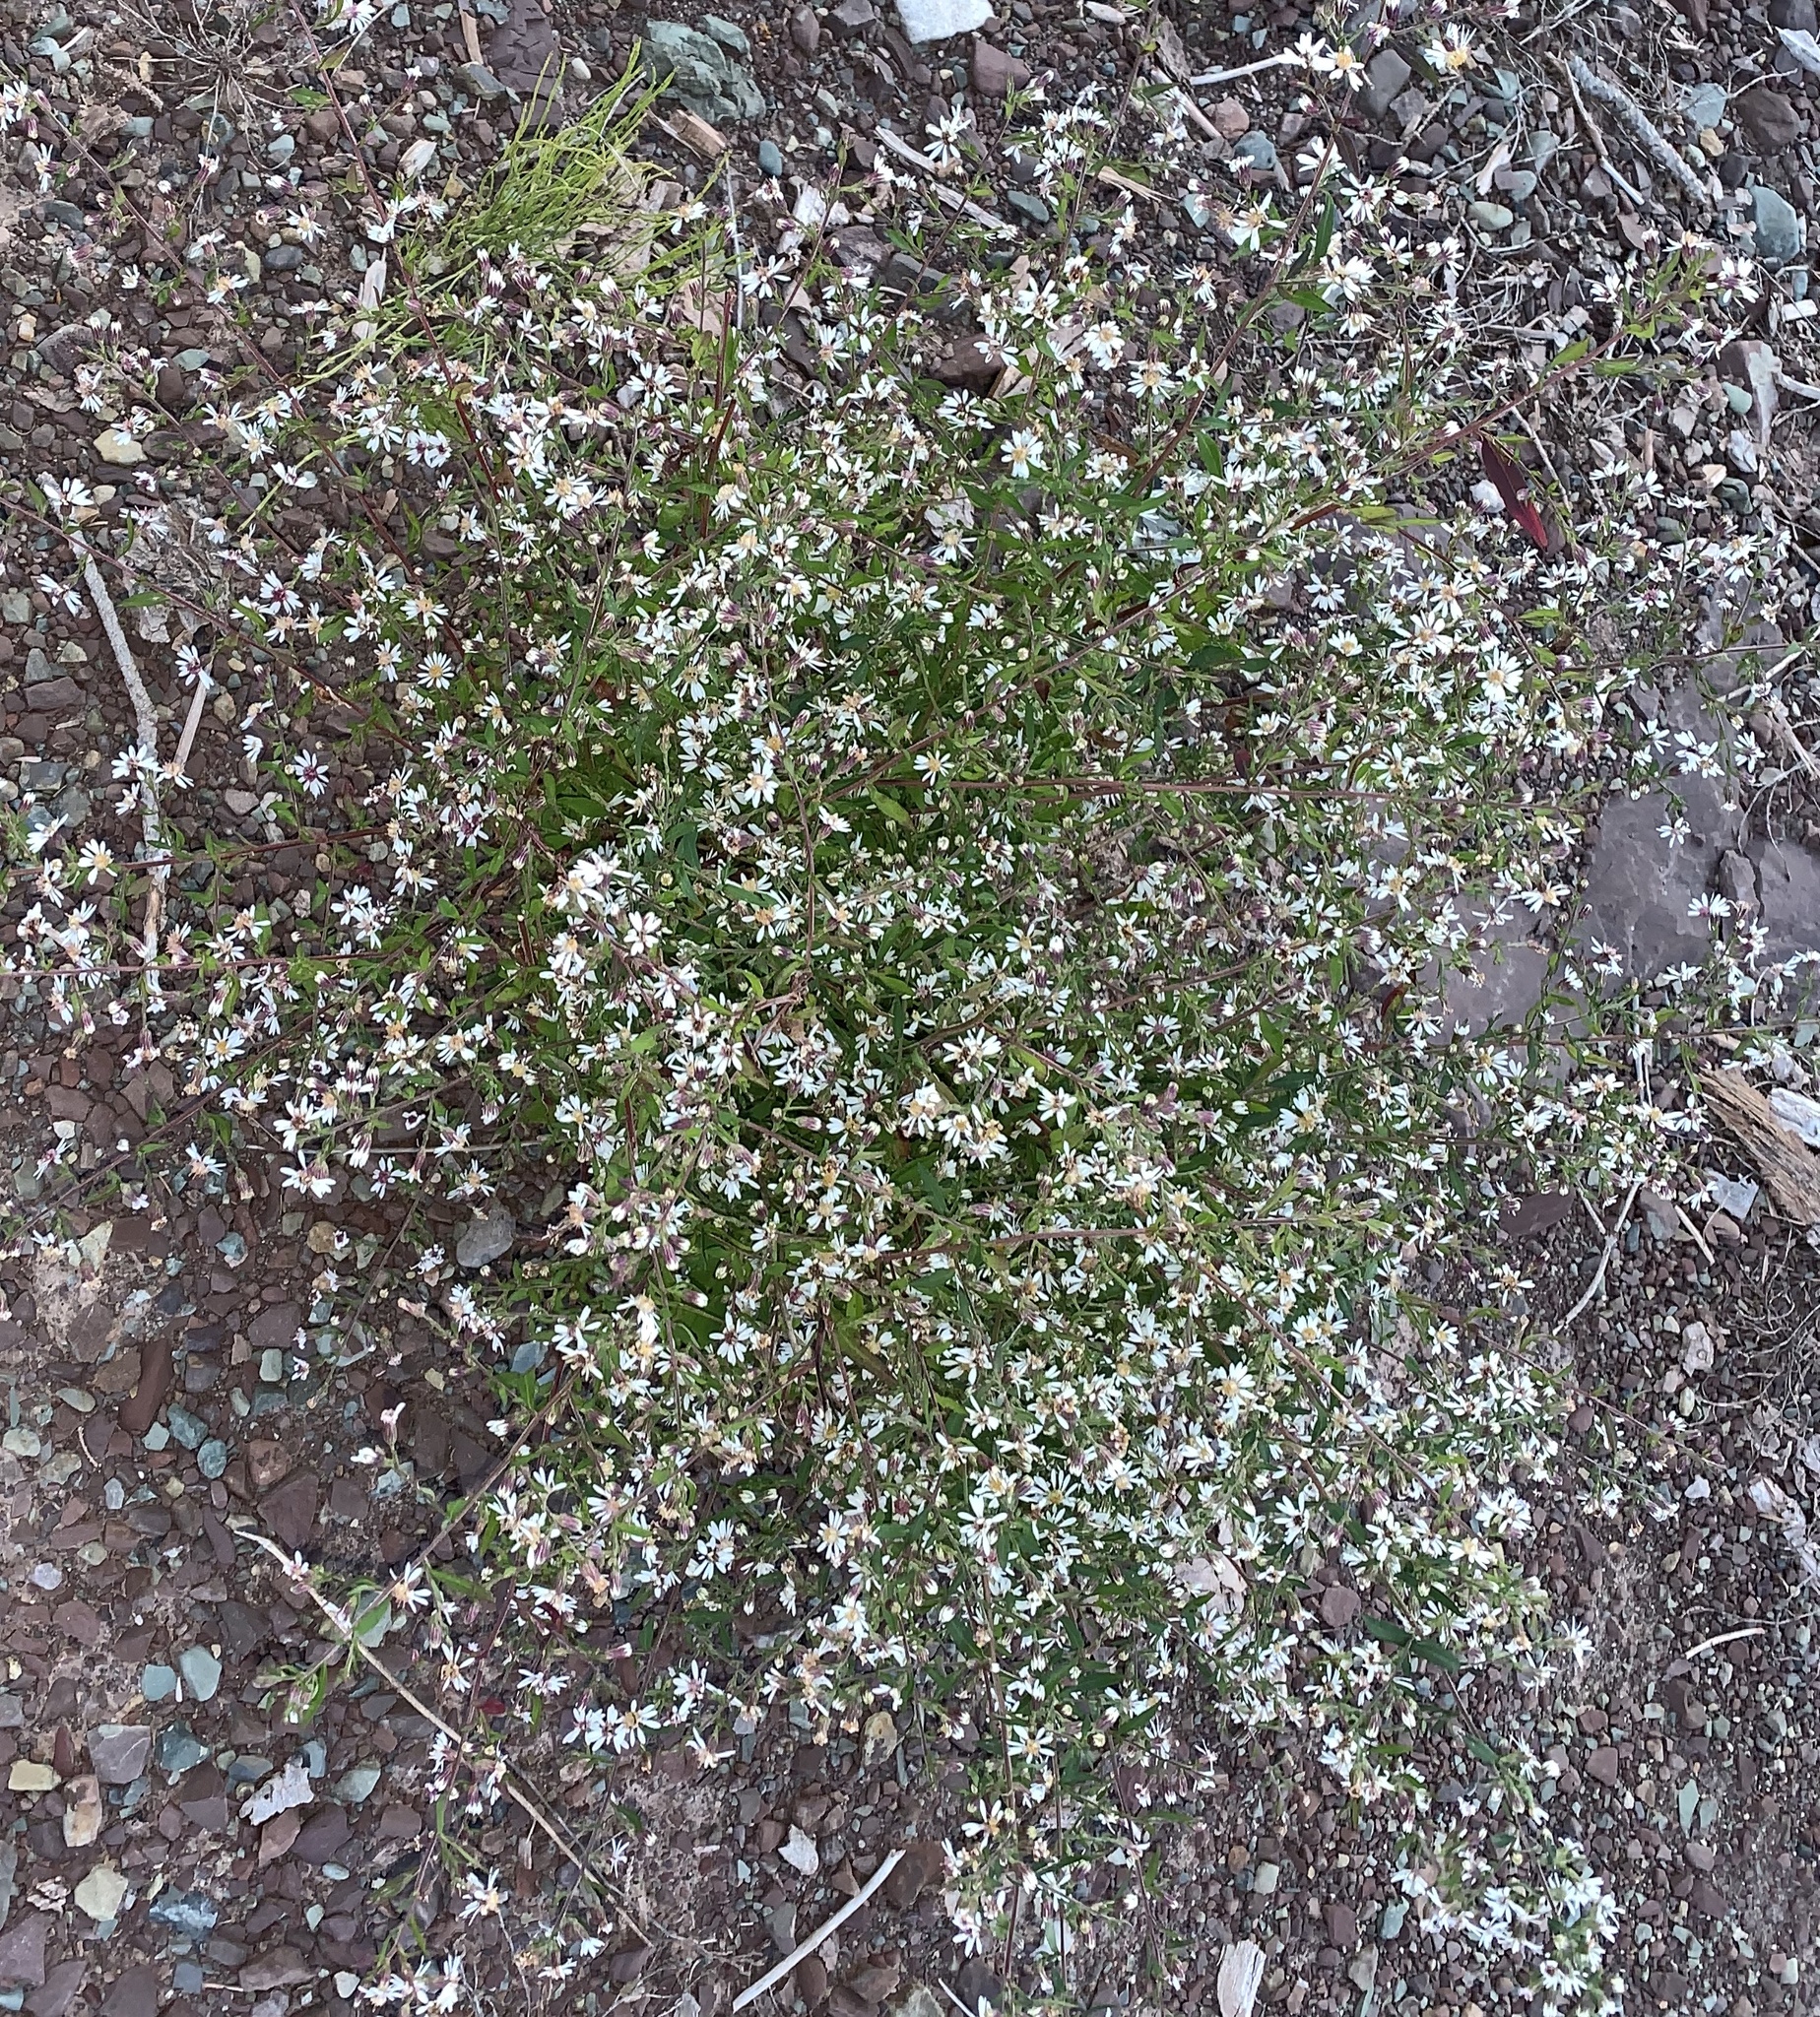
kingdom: Plantae
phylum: Tracheophyta
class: Magnoliopsida
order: Asterales
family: Asteraceae
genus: Symphyotrichum
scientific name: Symphyotrichum lateriflorum
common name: Calico aster
